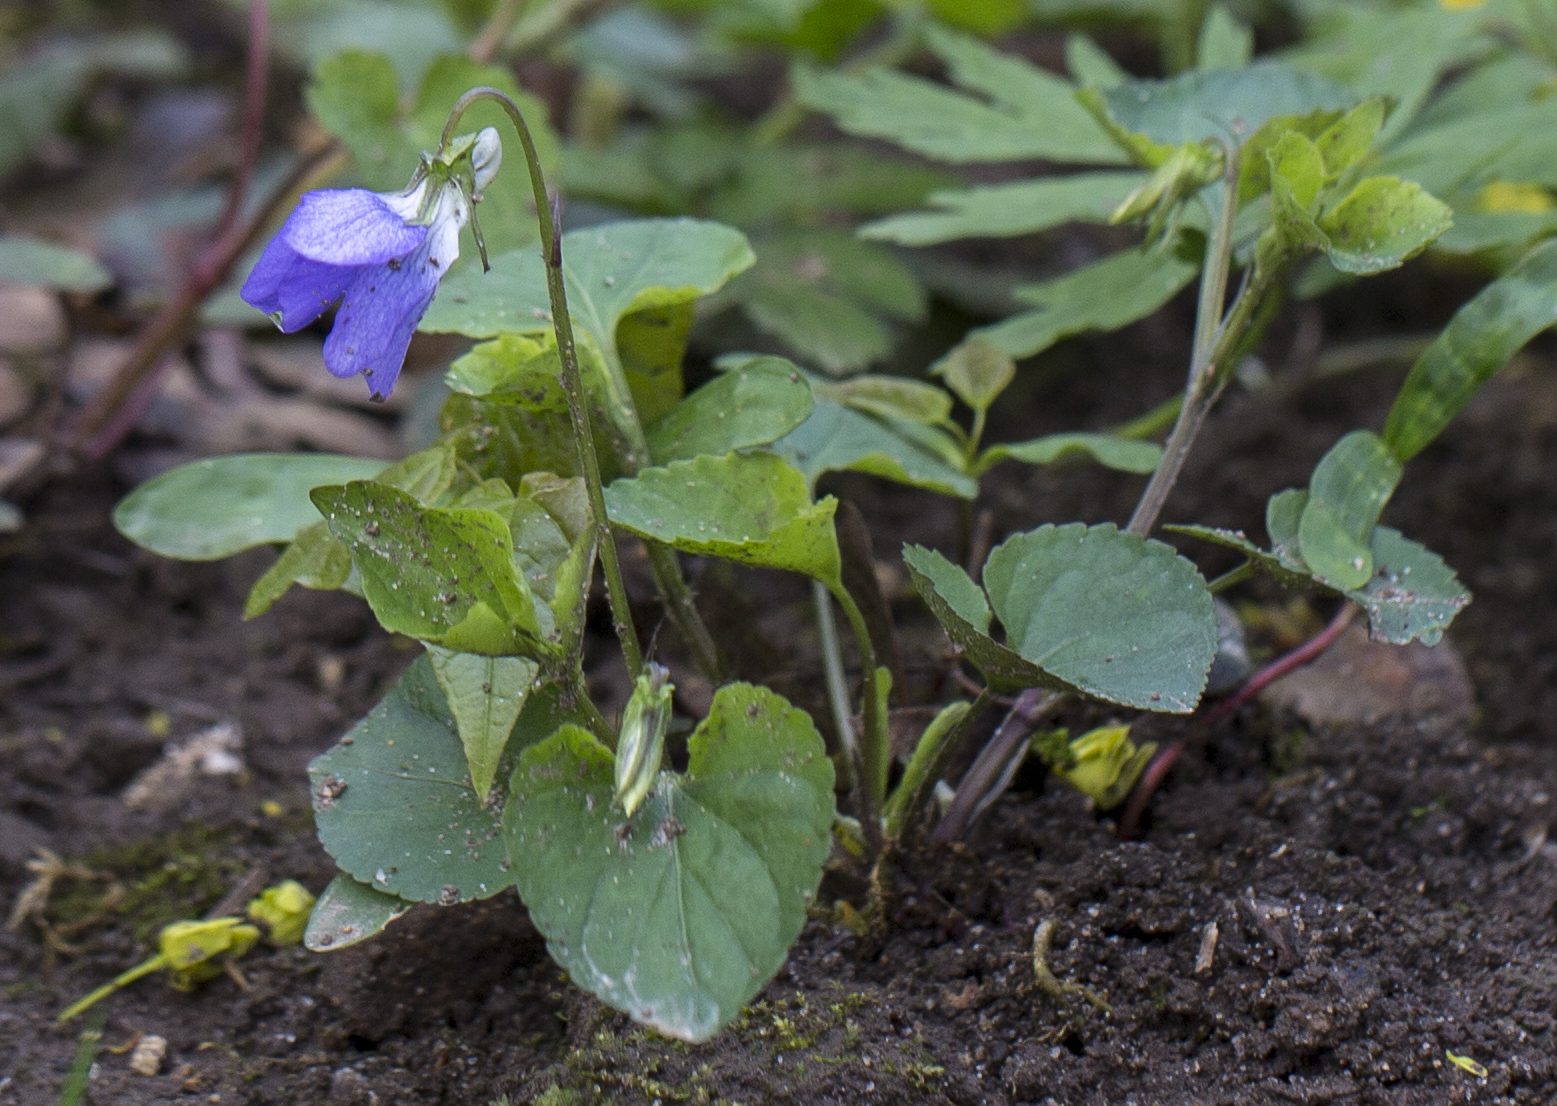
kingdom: Plantae
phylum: Tracheophyta
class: Magnoliopsida
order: Malpighiales
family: Violaceae
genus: Viola
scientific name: Viola odorata
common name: Sweet violet
